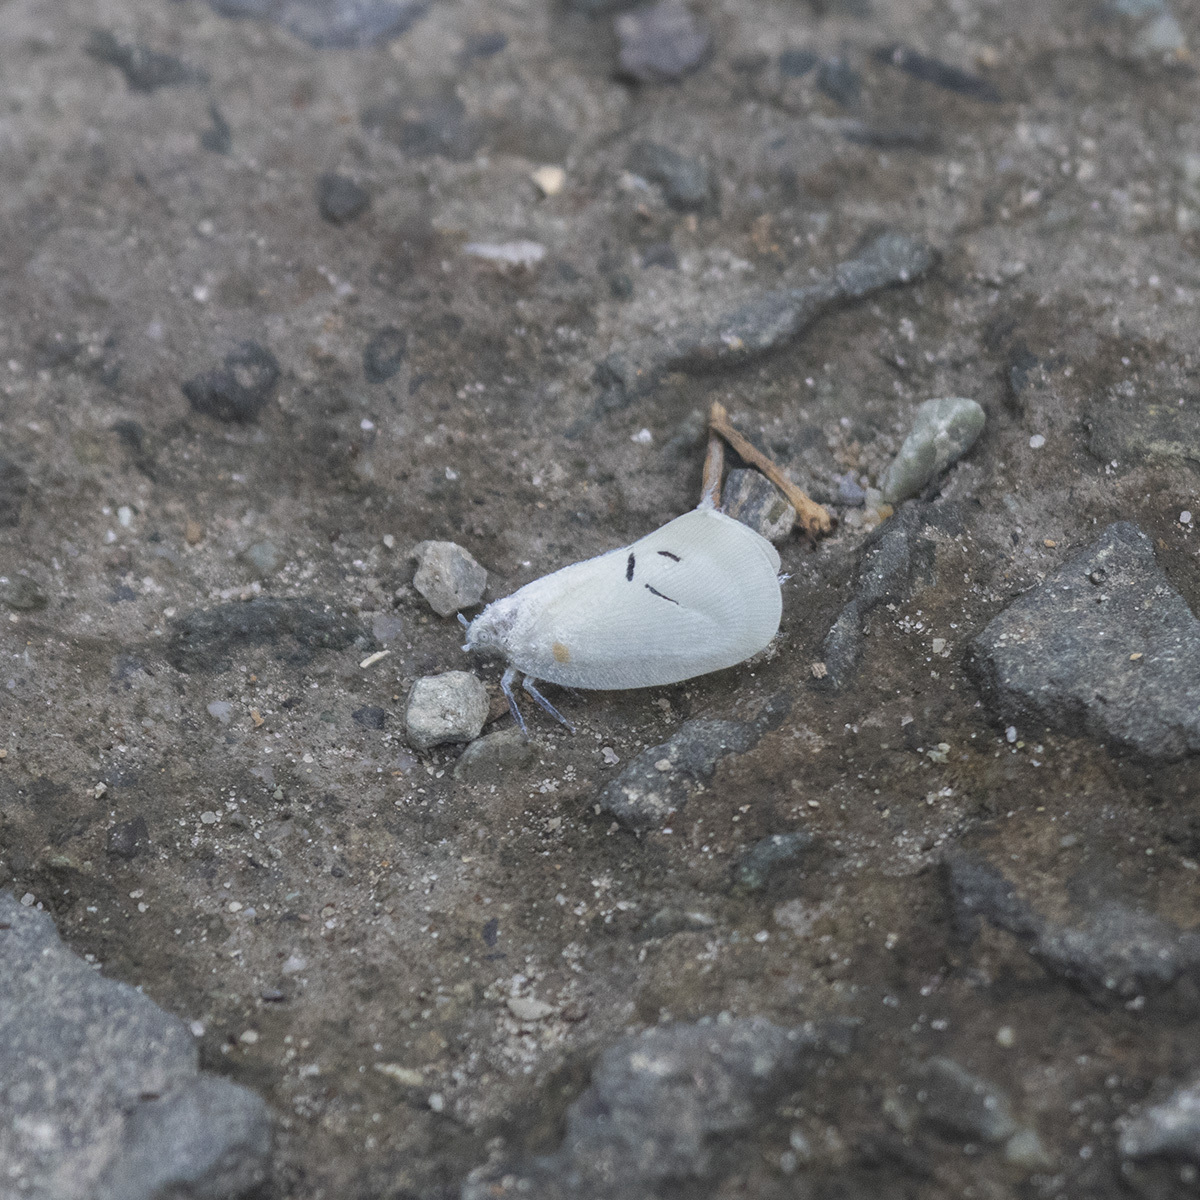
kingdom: Animalia
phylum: Arthropoda
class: Insecta
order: Hemiptera
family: Flatidae
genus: Cerynia
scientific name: Cerynia maria
